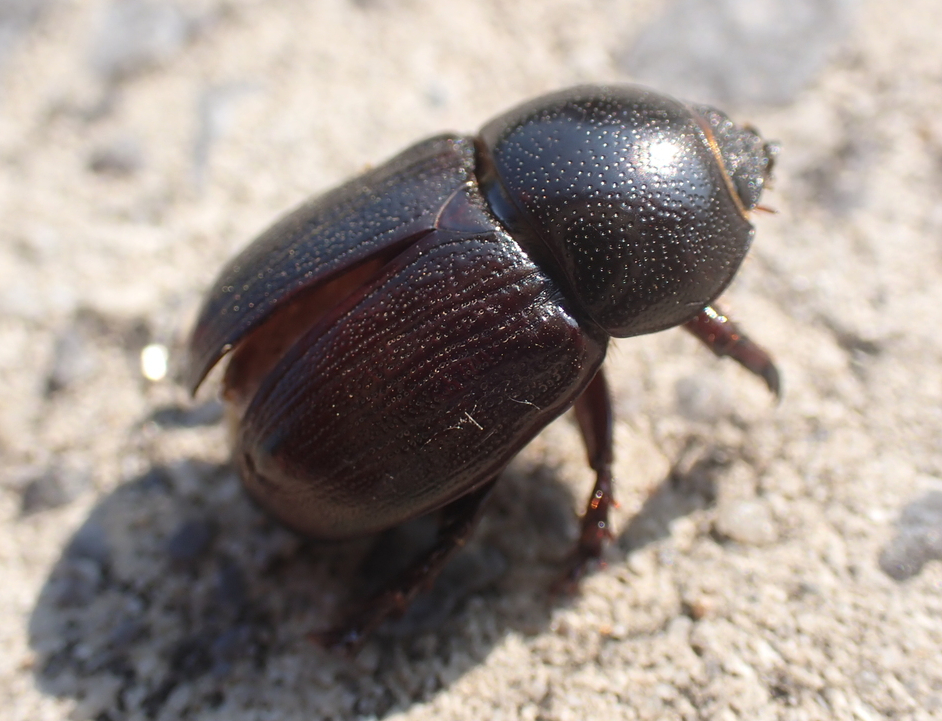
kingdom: Animalia
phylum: Arthropoda
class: Insecta
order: Coleoptera
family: Scarabaeidae
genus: Euetheola
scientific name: Euetheola humilis
